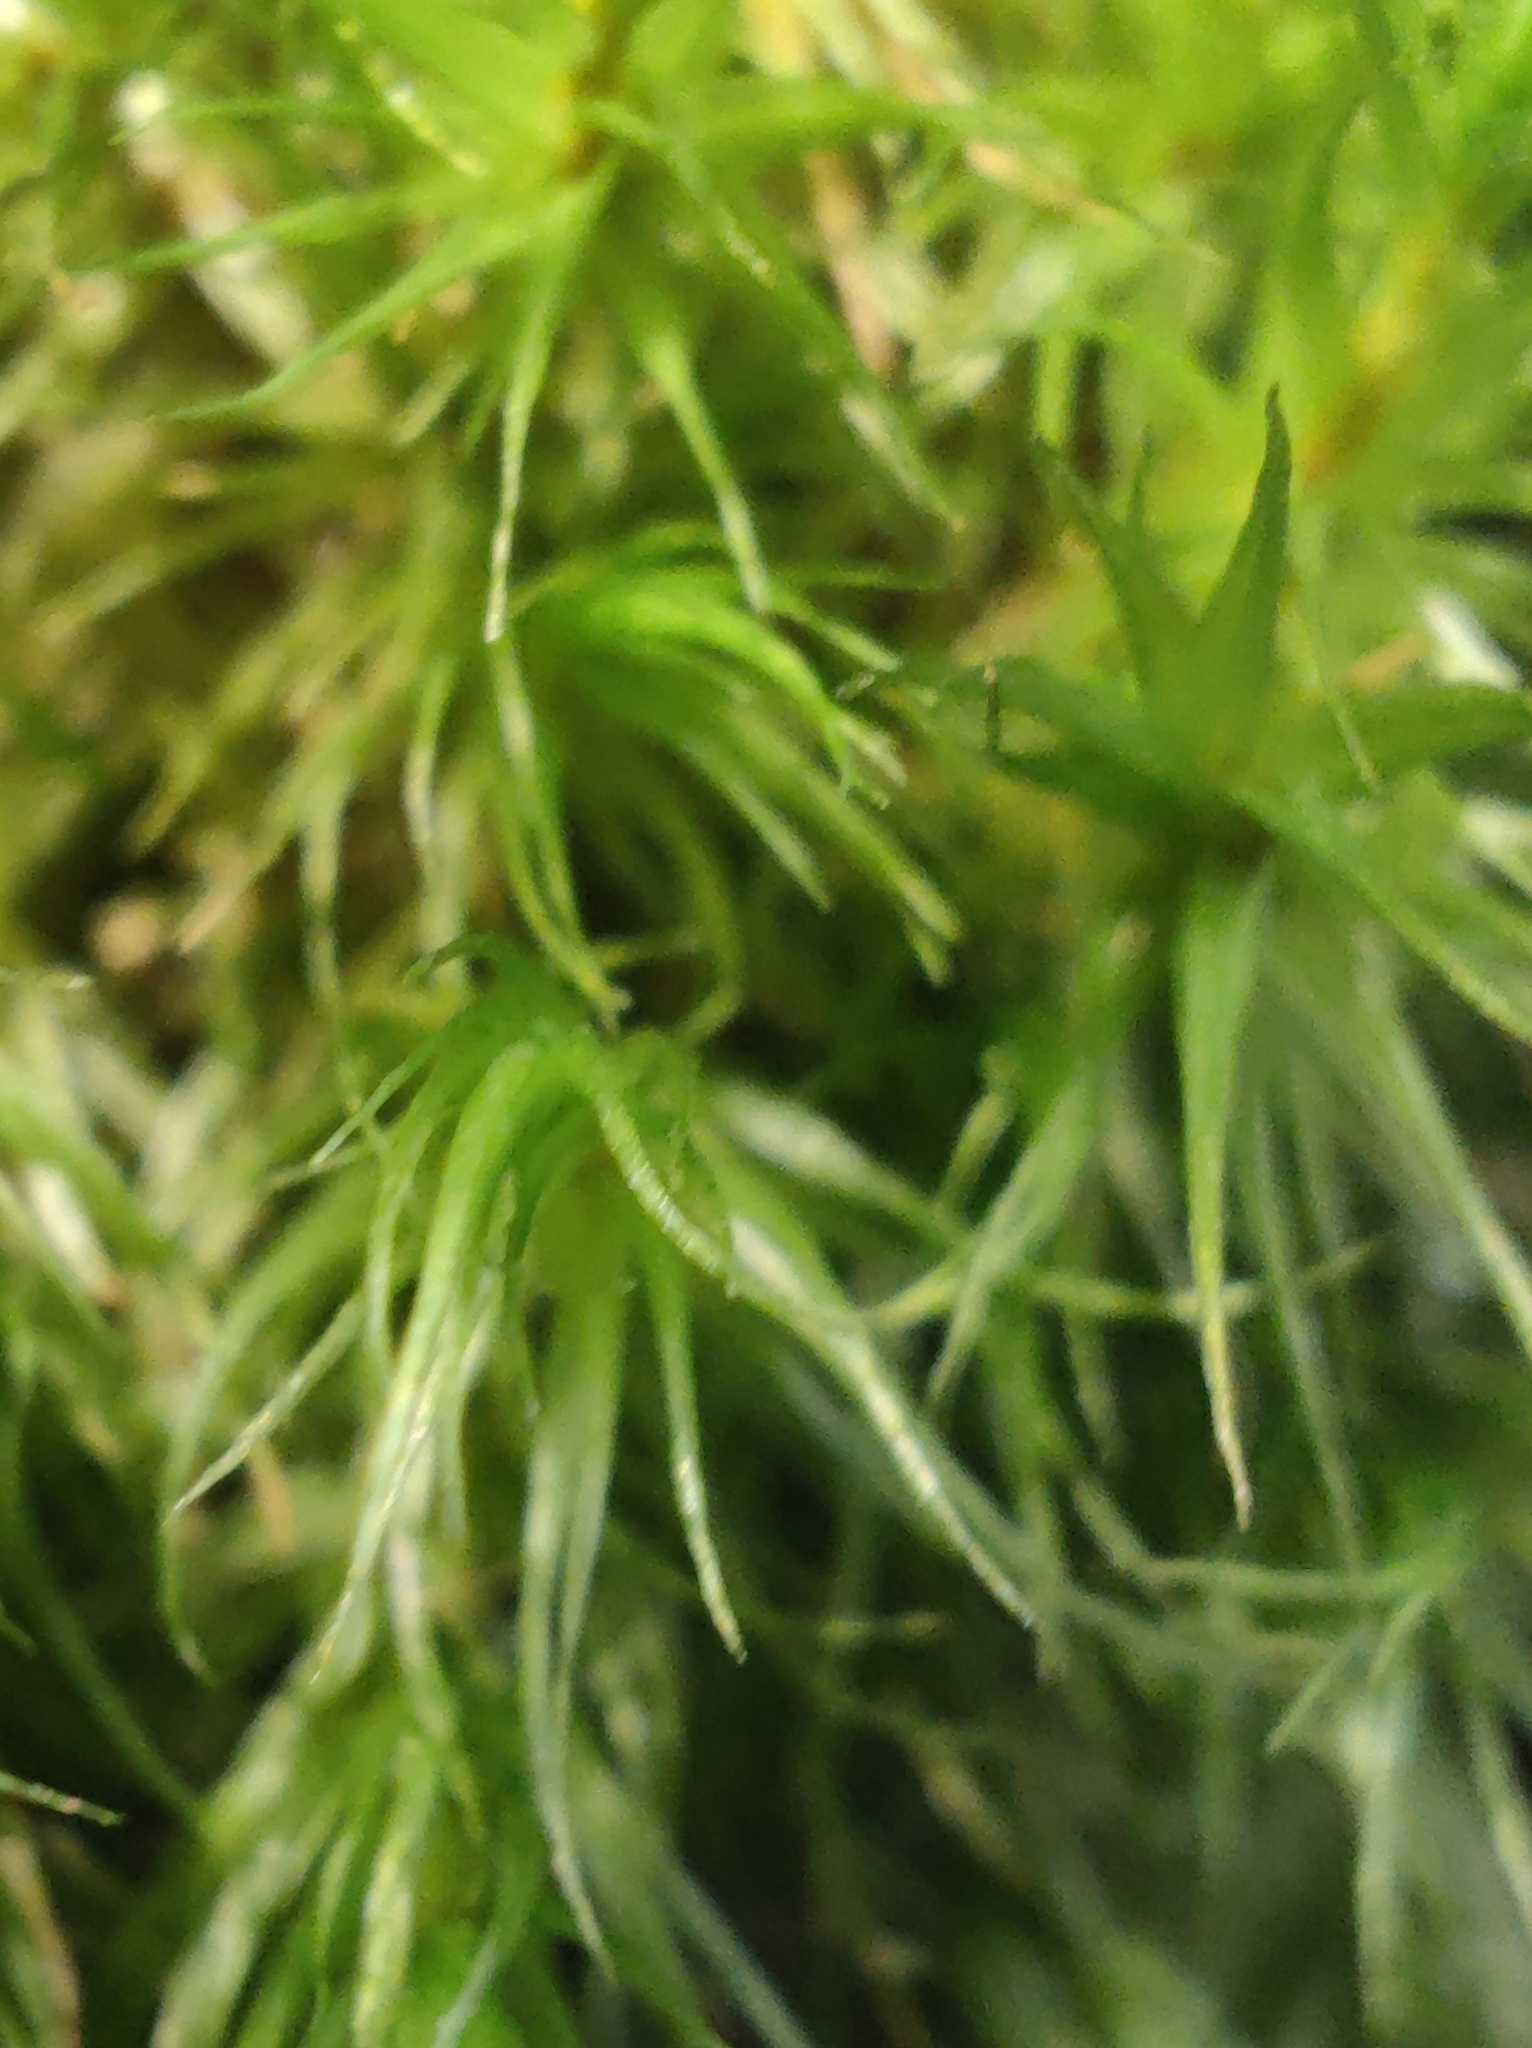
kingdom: Plantae
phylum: Bryophyta
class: Bryopsida
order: Dicranales
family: Dicranaceae
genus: Dicranum
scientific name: Dicranum scoparium
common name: Broom fork-moss
